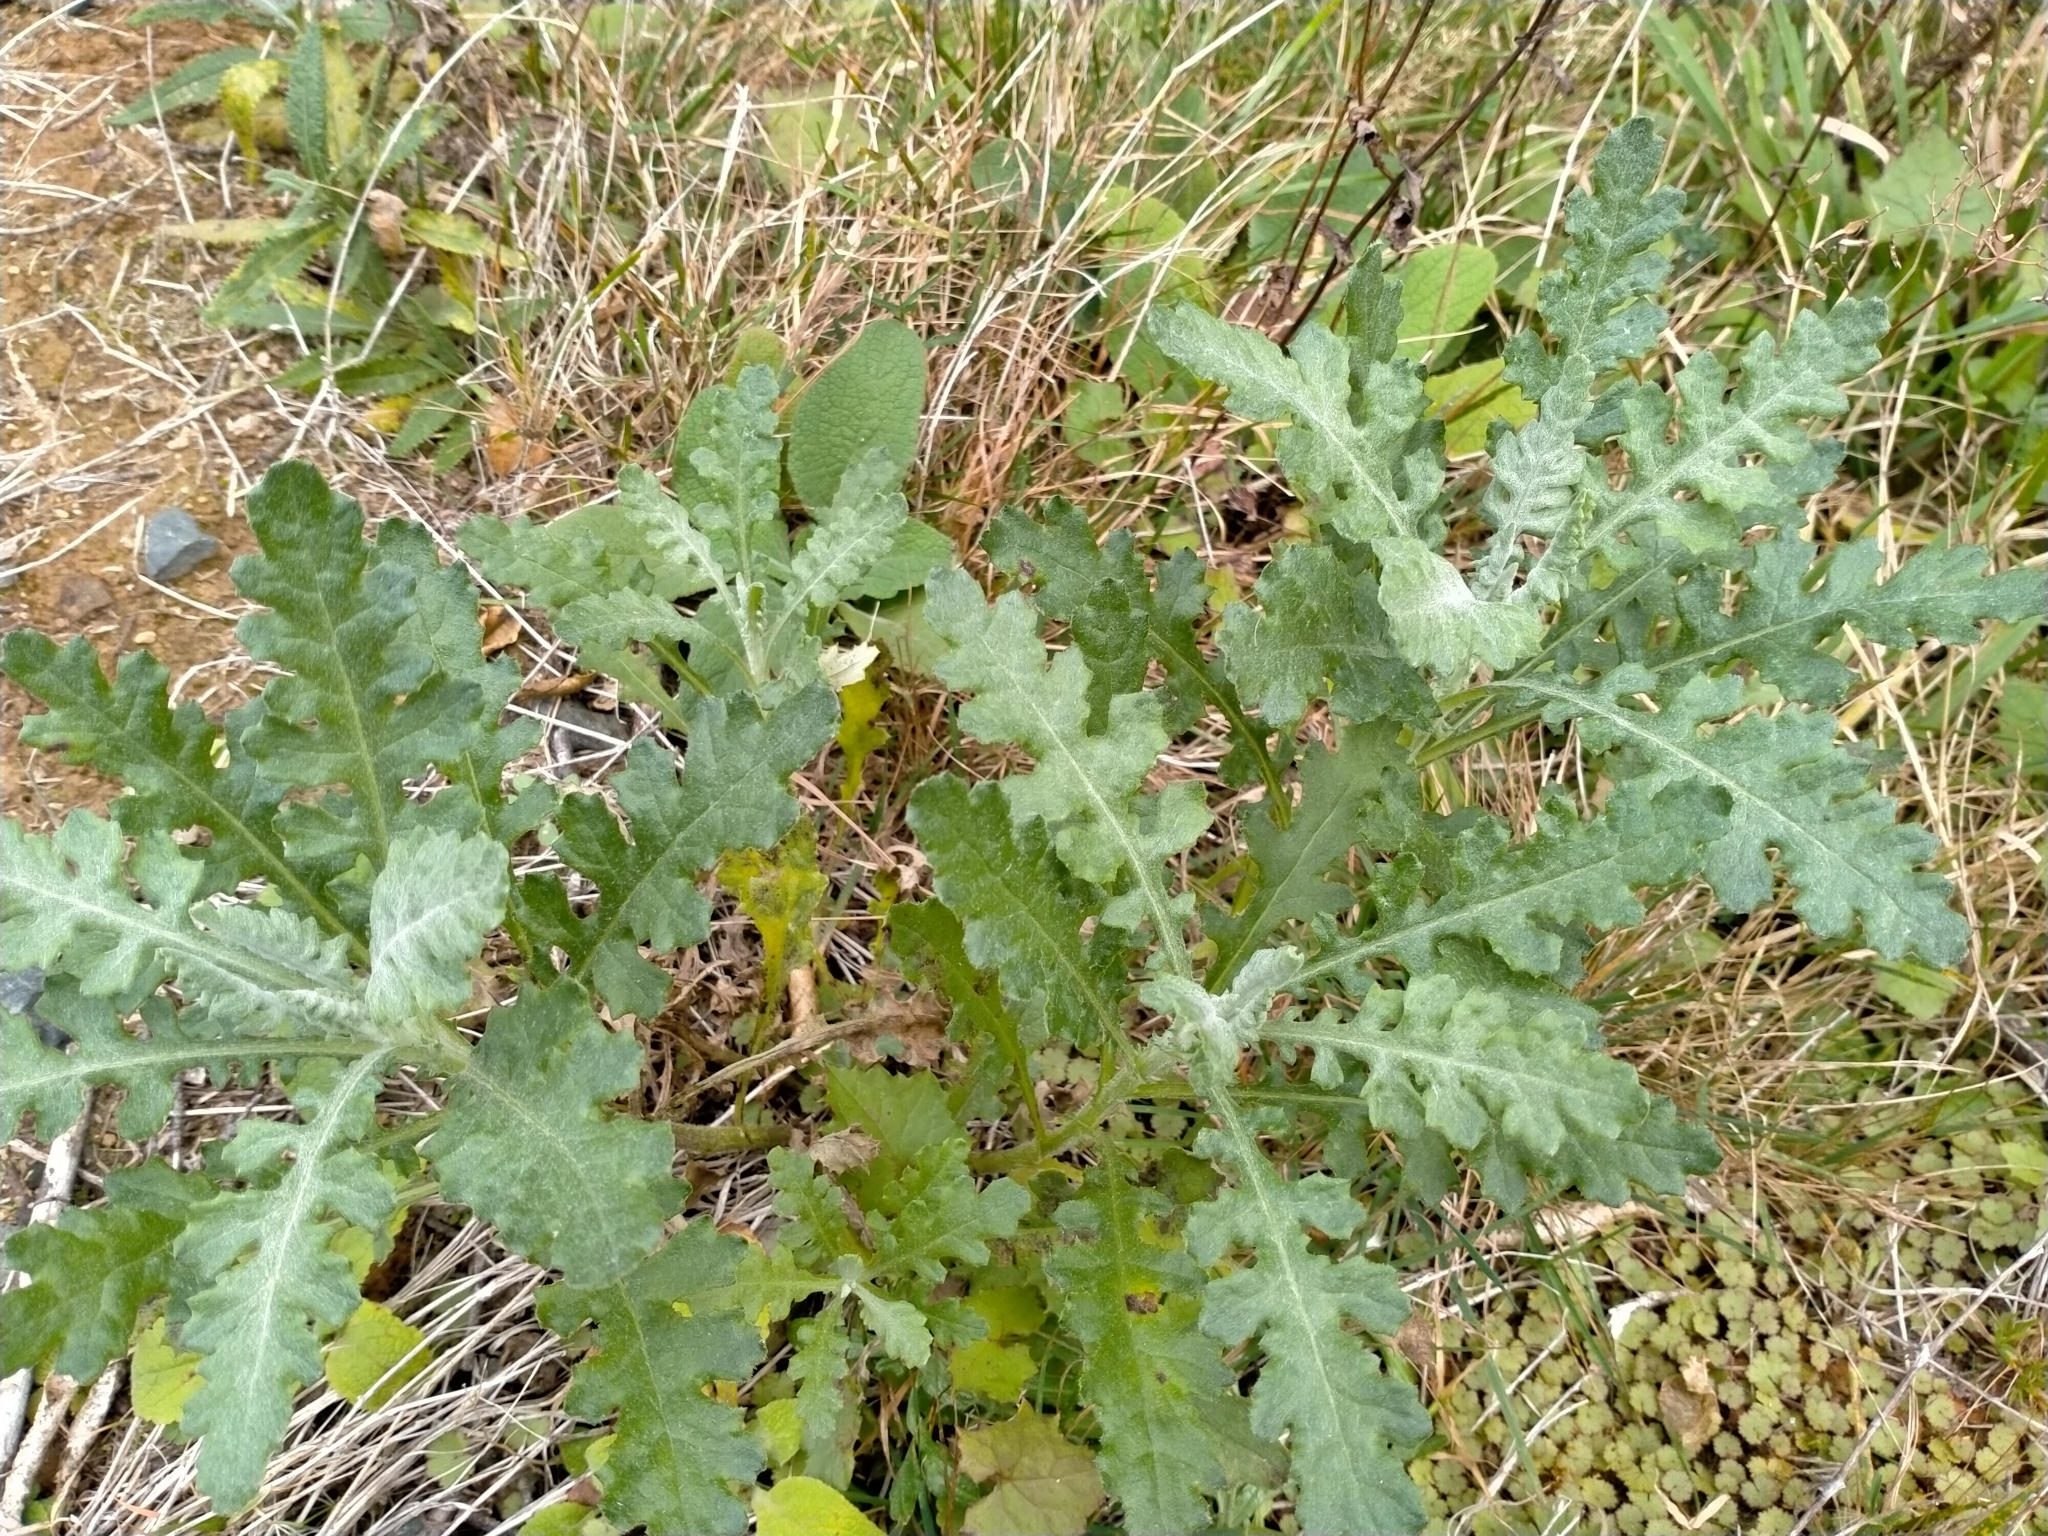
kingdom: Plantae
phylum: Tracheophyta
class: Magnoliopsida
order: Asterales
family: Asteraceae
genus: Senecio
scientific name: Senecio glomeratus
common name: Cutleaf burnweed
